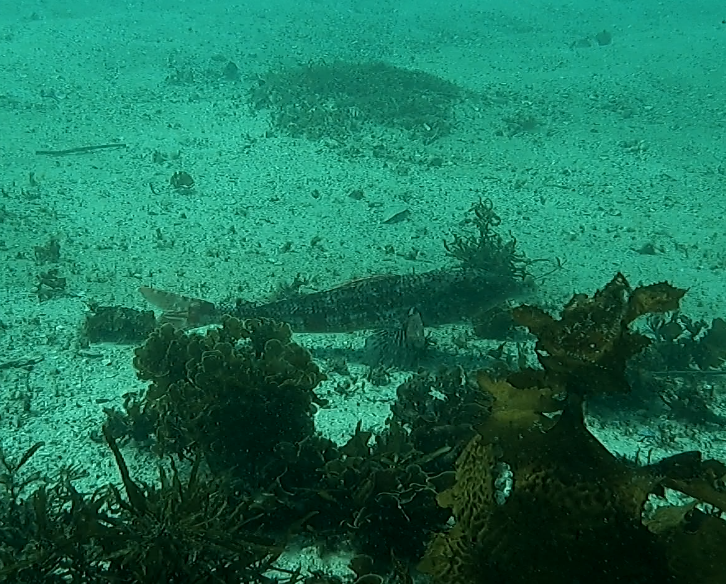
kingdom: Animalia
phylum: Chordata
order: Aulopiformes
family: Aulopidae
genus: Latropiscis
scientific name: Latropiscis purpurissatus
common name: Sergeant baker
